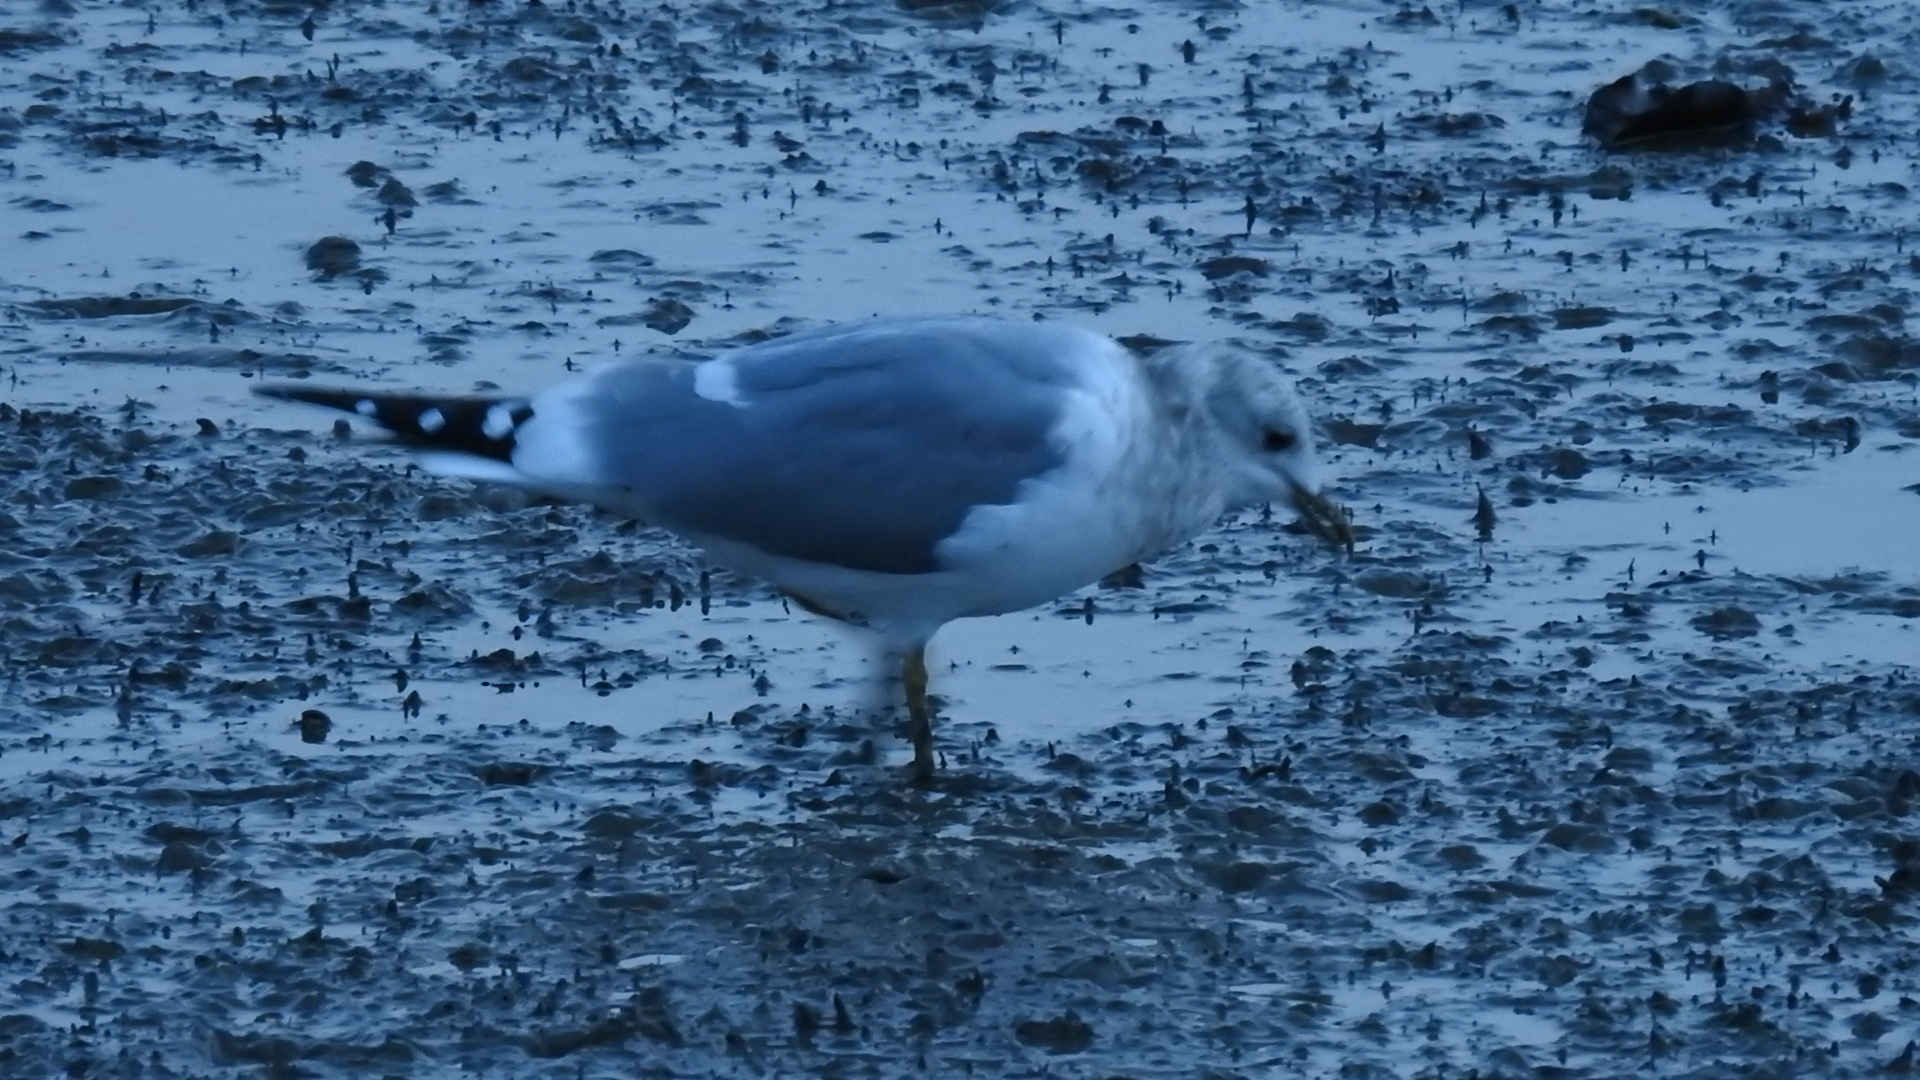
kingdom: Animalia
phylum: Chordata
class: Aves
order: Charadriiformes
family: Laridae
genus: Larus
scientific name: Larus brachyrhynchus
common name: Short-billed gull
